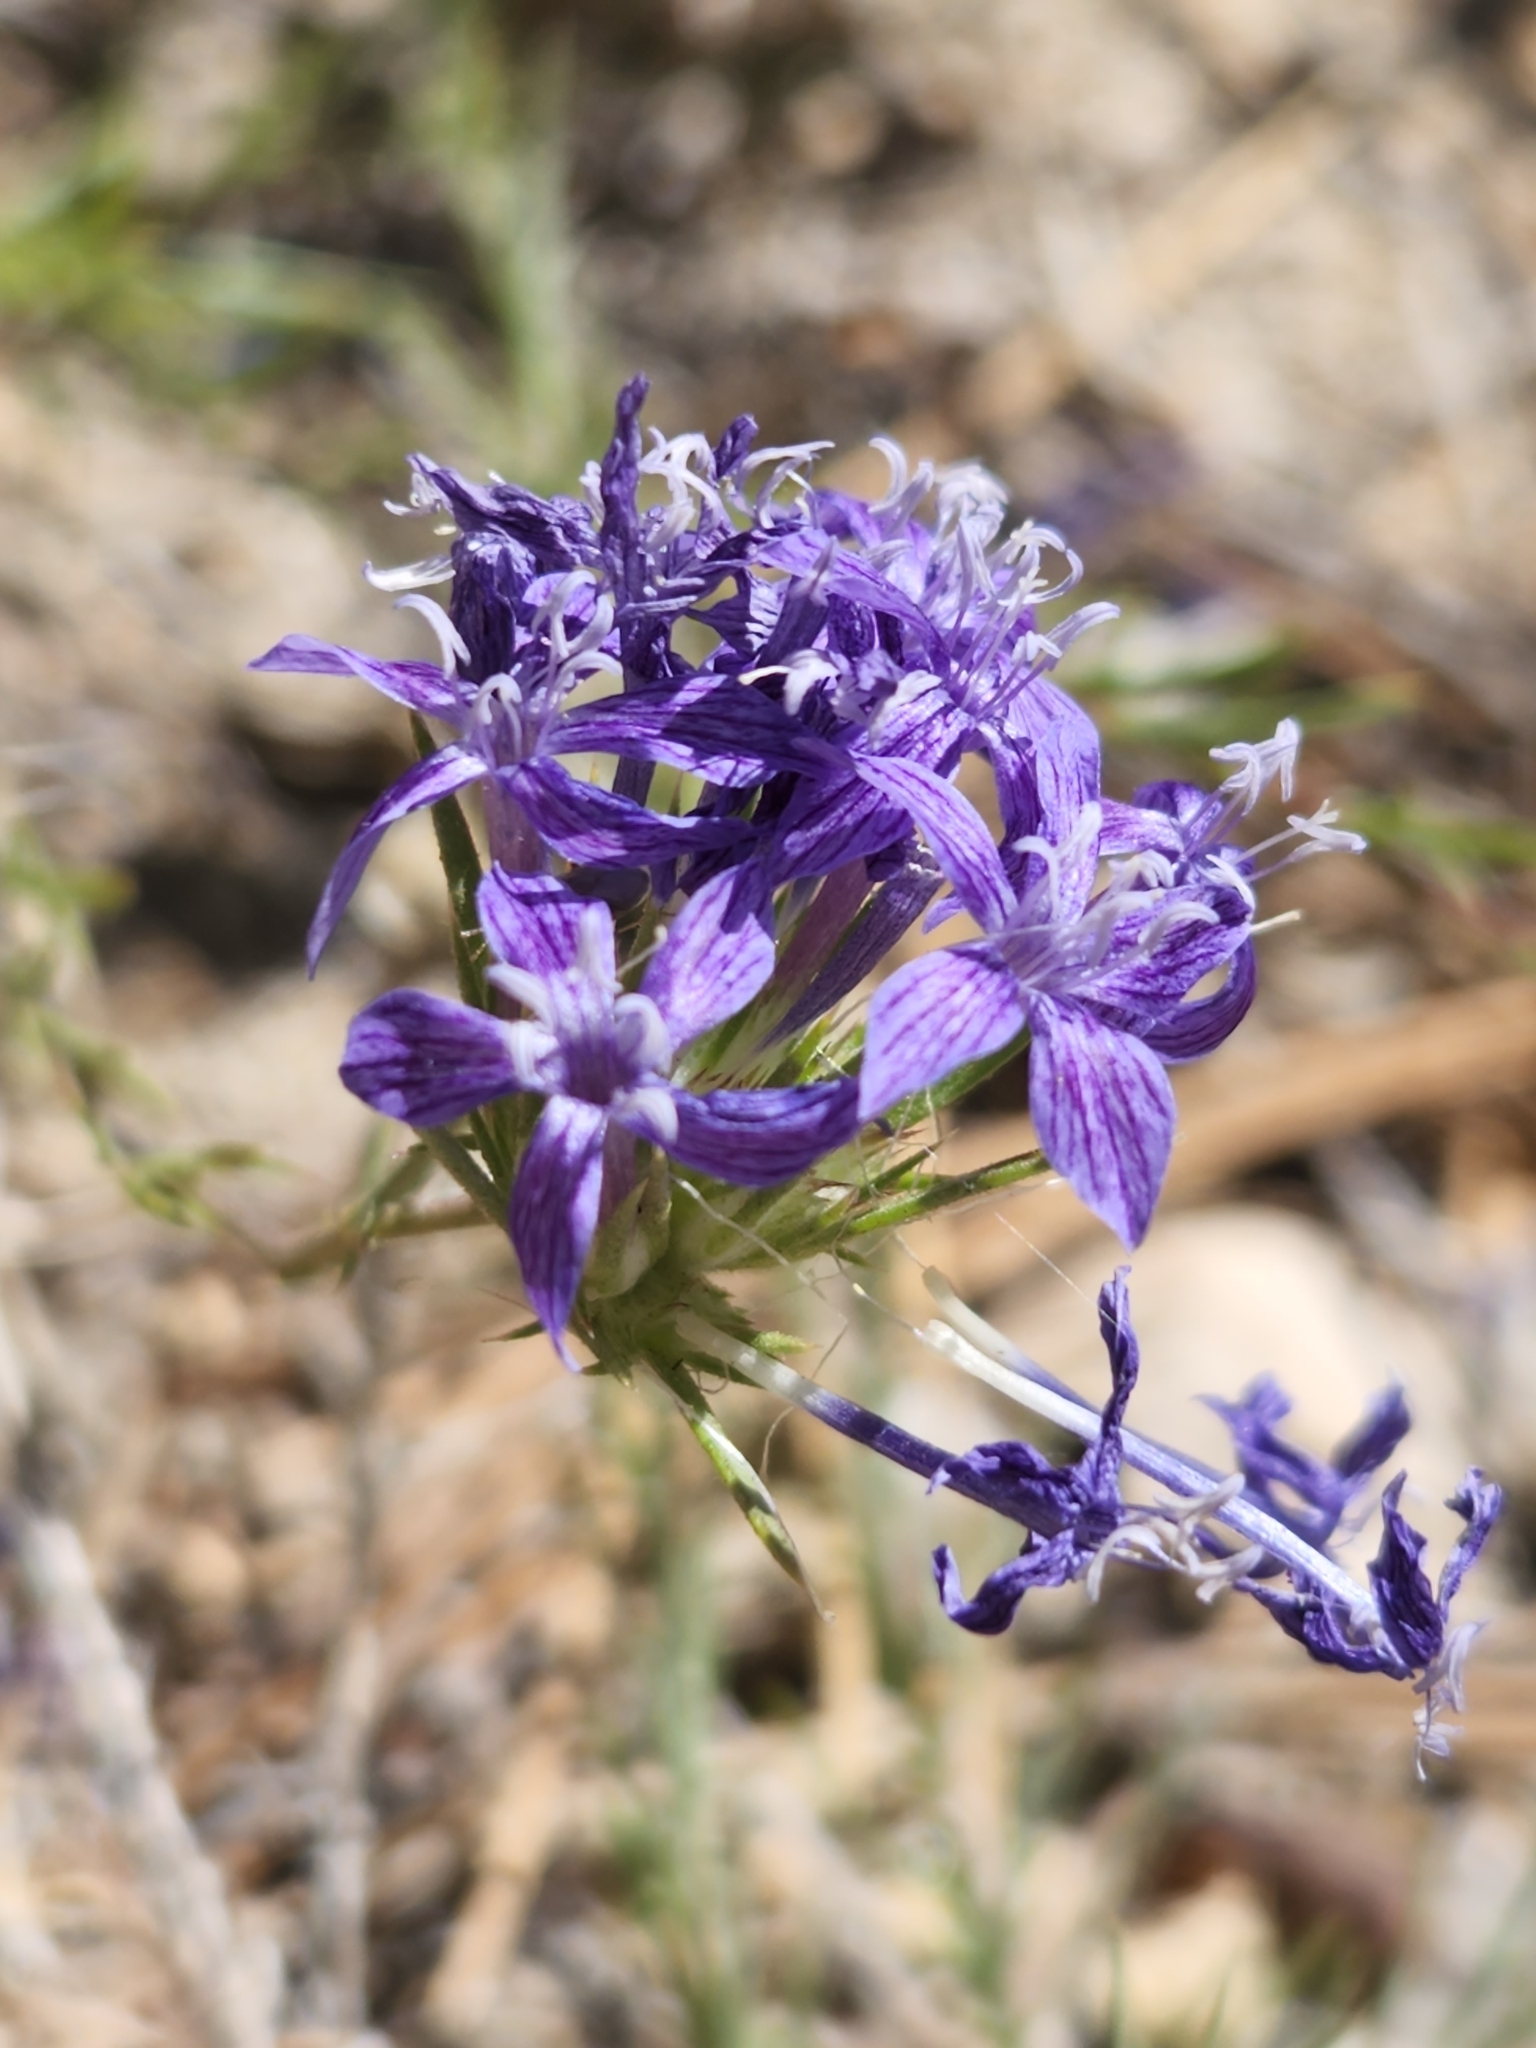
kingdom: Plantae
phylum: Tracheophyta
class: Magnoliopsida
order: Ericales
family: Polemoniaceae
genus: Eriastrum
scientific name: Eriastrum densifolium
